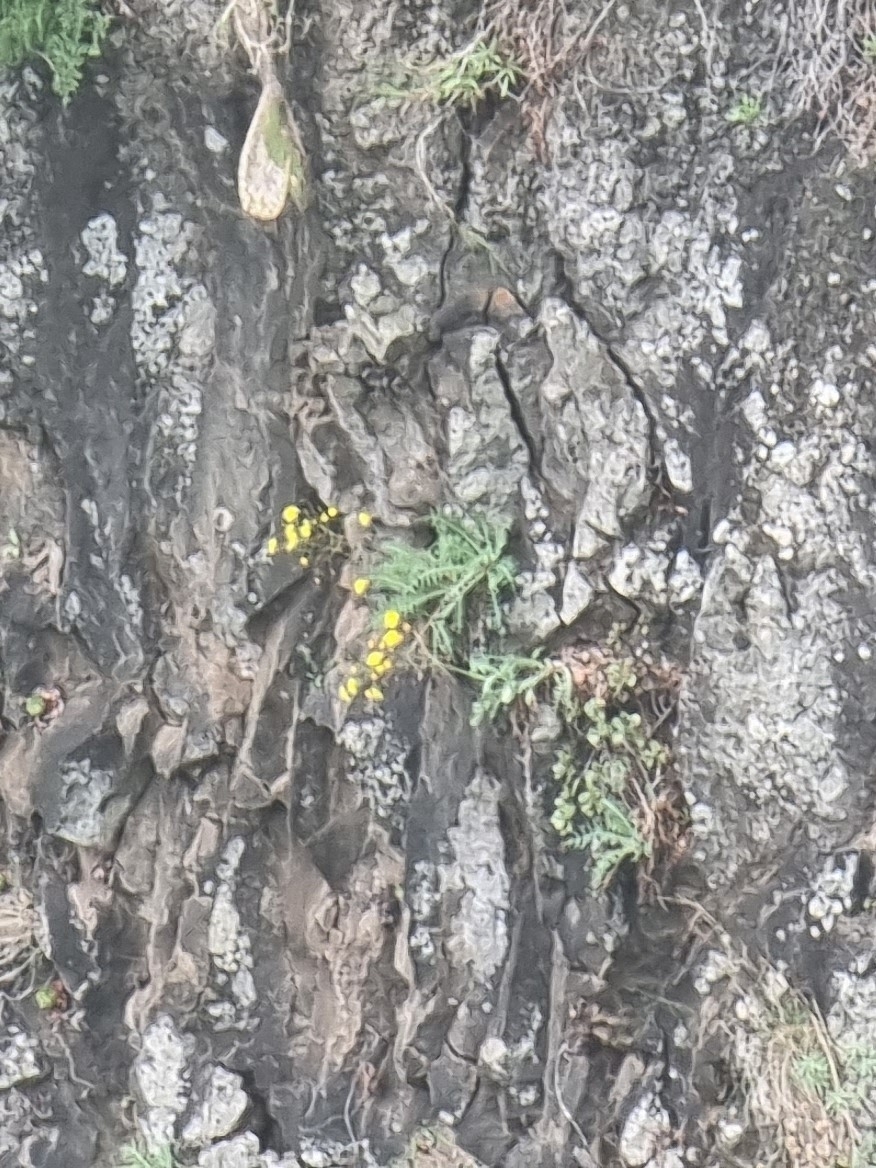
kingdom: Plantae
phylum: Tracheophyta
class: Magnoliopsida
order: Asterales
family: Asteraceae
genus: Sonchus
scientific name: Sonchus ustulatus
